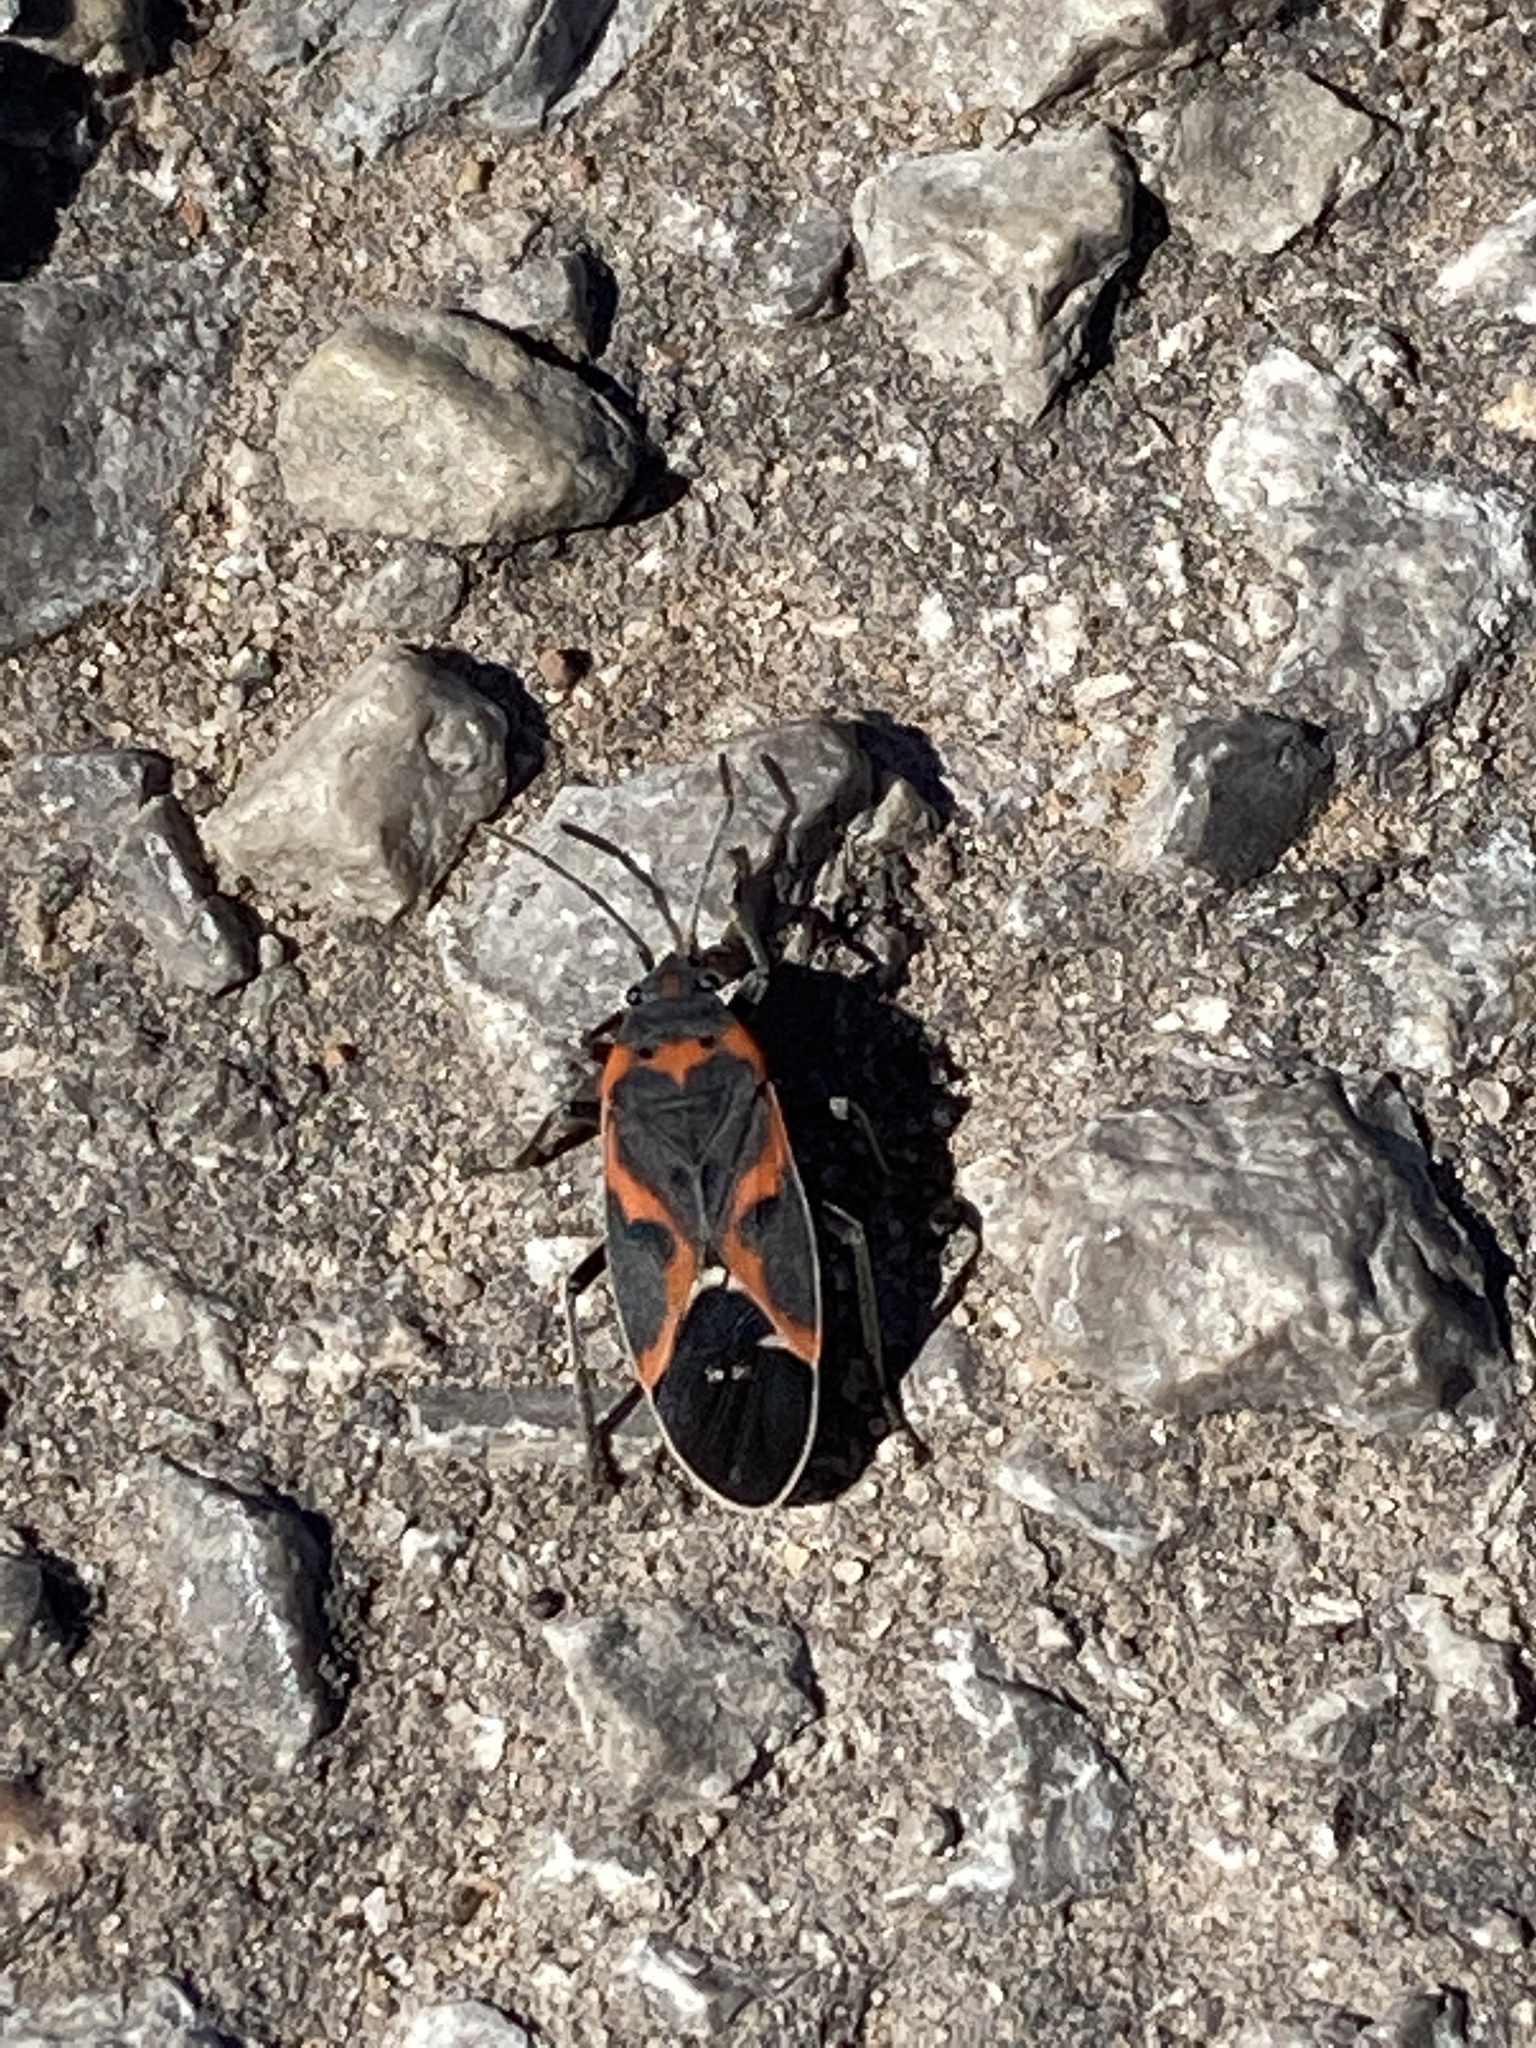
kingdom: Animalia
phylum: Arthropoda
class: Insecta
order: Hemiptera
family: Lygaeidae
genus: Lygaeus
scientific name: Lygaeus kalmii
